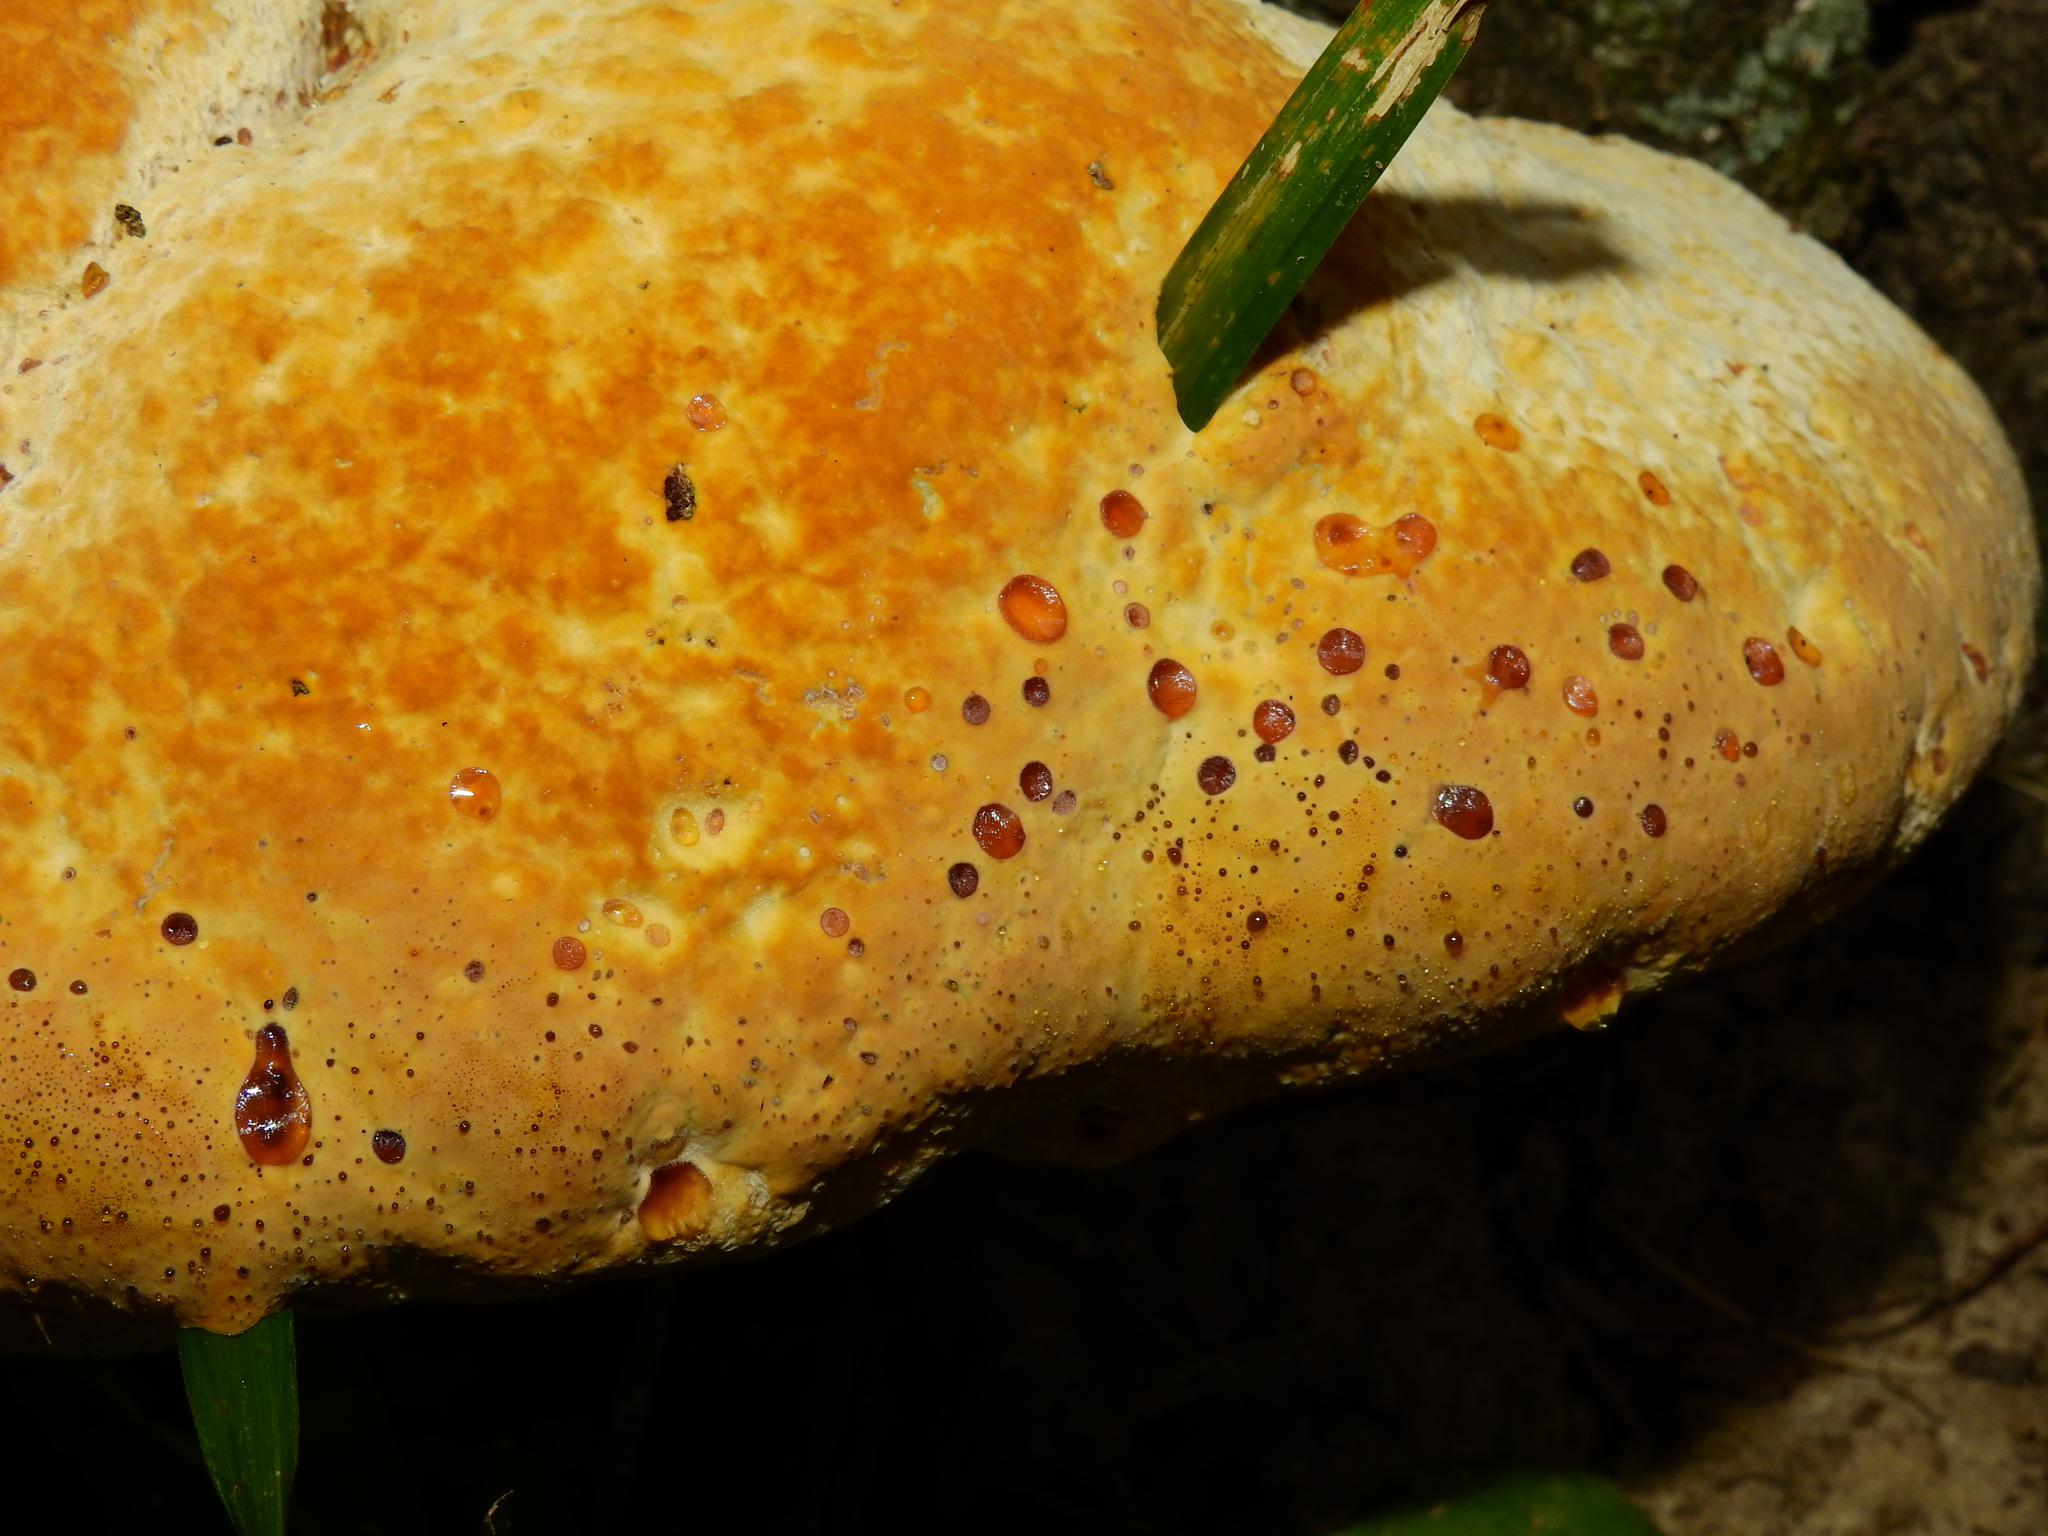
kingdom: Fungi
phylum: Basidiomycota
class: Agaricomycetes
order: Hymenochaetales
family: Hymenochaetaceae
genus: Pseudoinonotus
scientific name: Pseudoinonotus dryadeus
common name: Oak bracket
